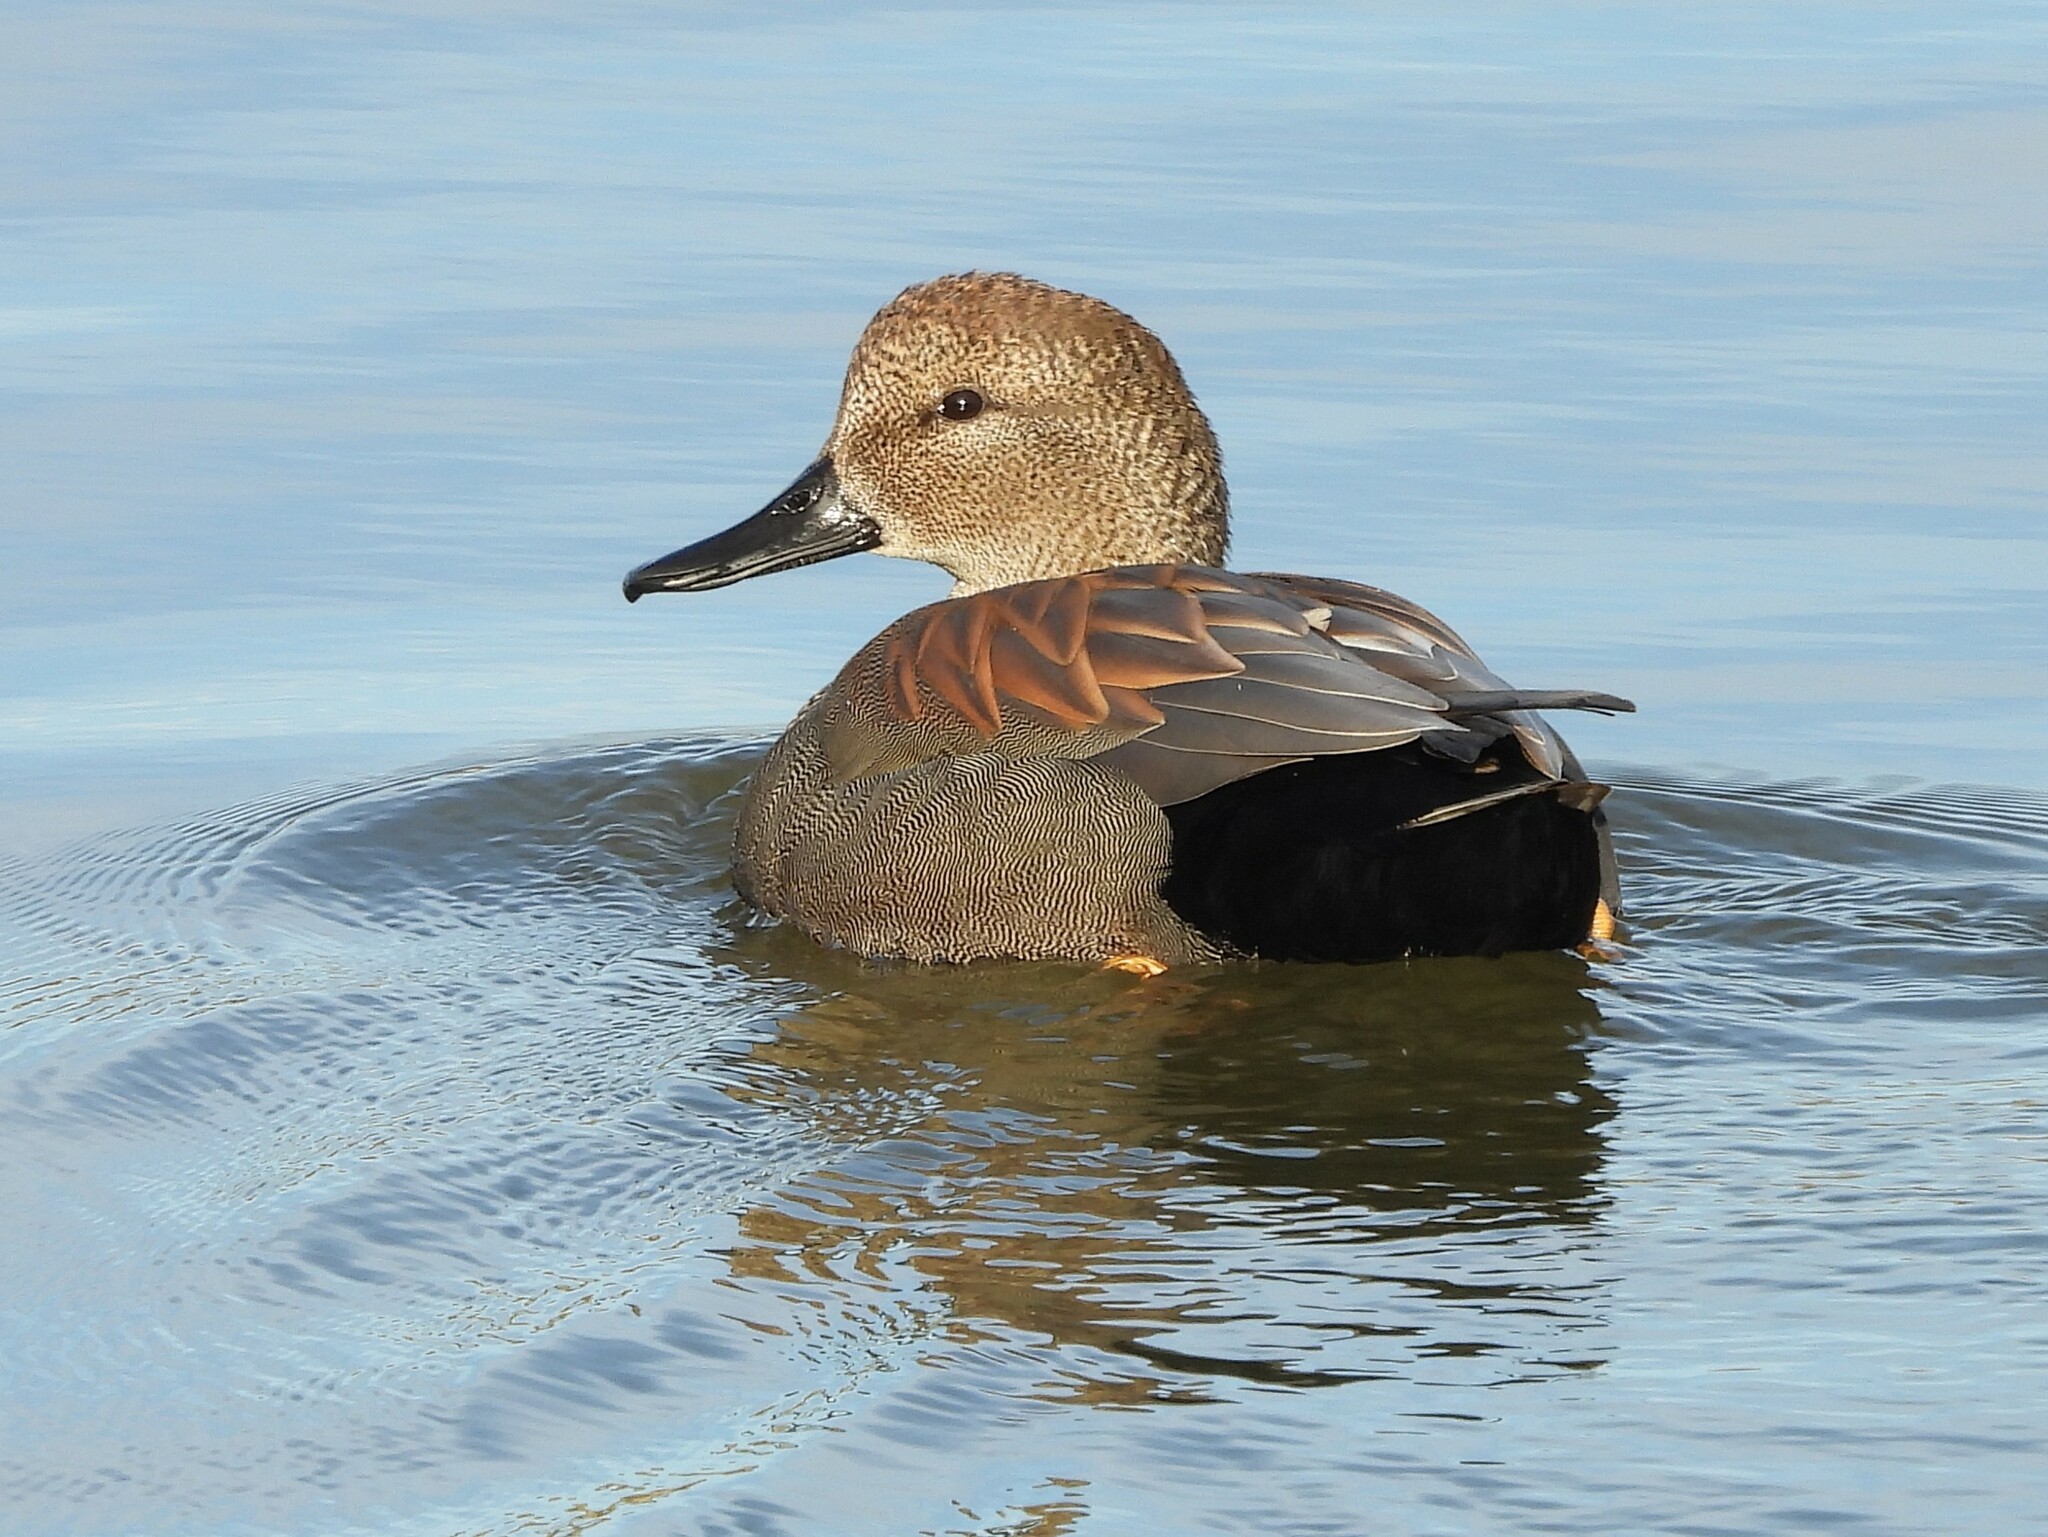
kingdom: Animalia
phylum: Chordata
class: Aves
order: Anseriformes
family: Anatidae
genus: Mareca
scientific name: Mareca strepera
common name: Gadwall
